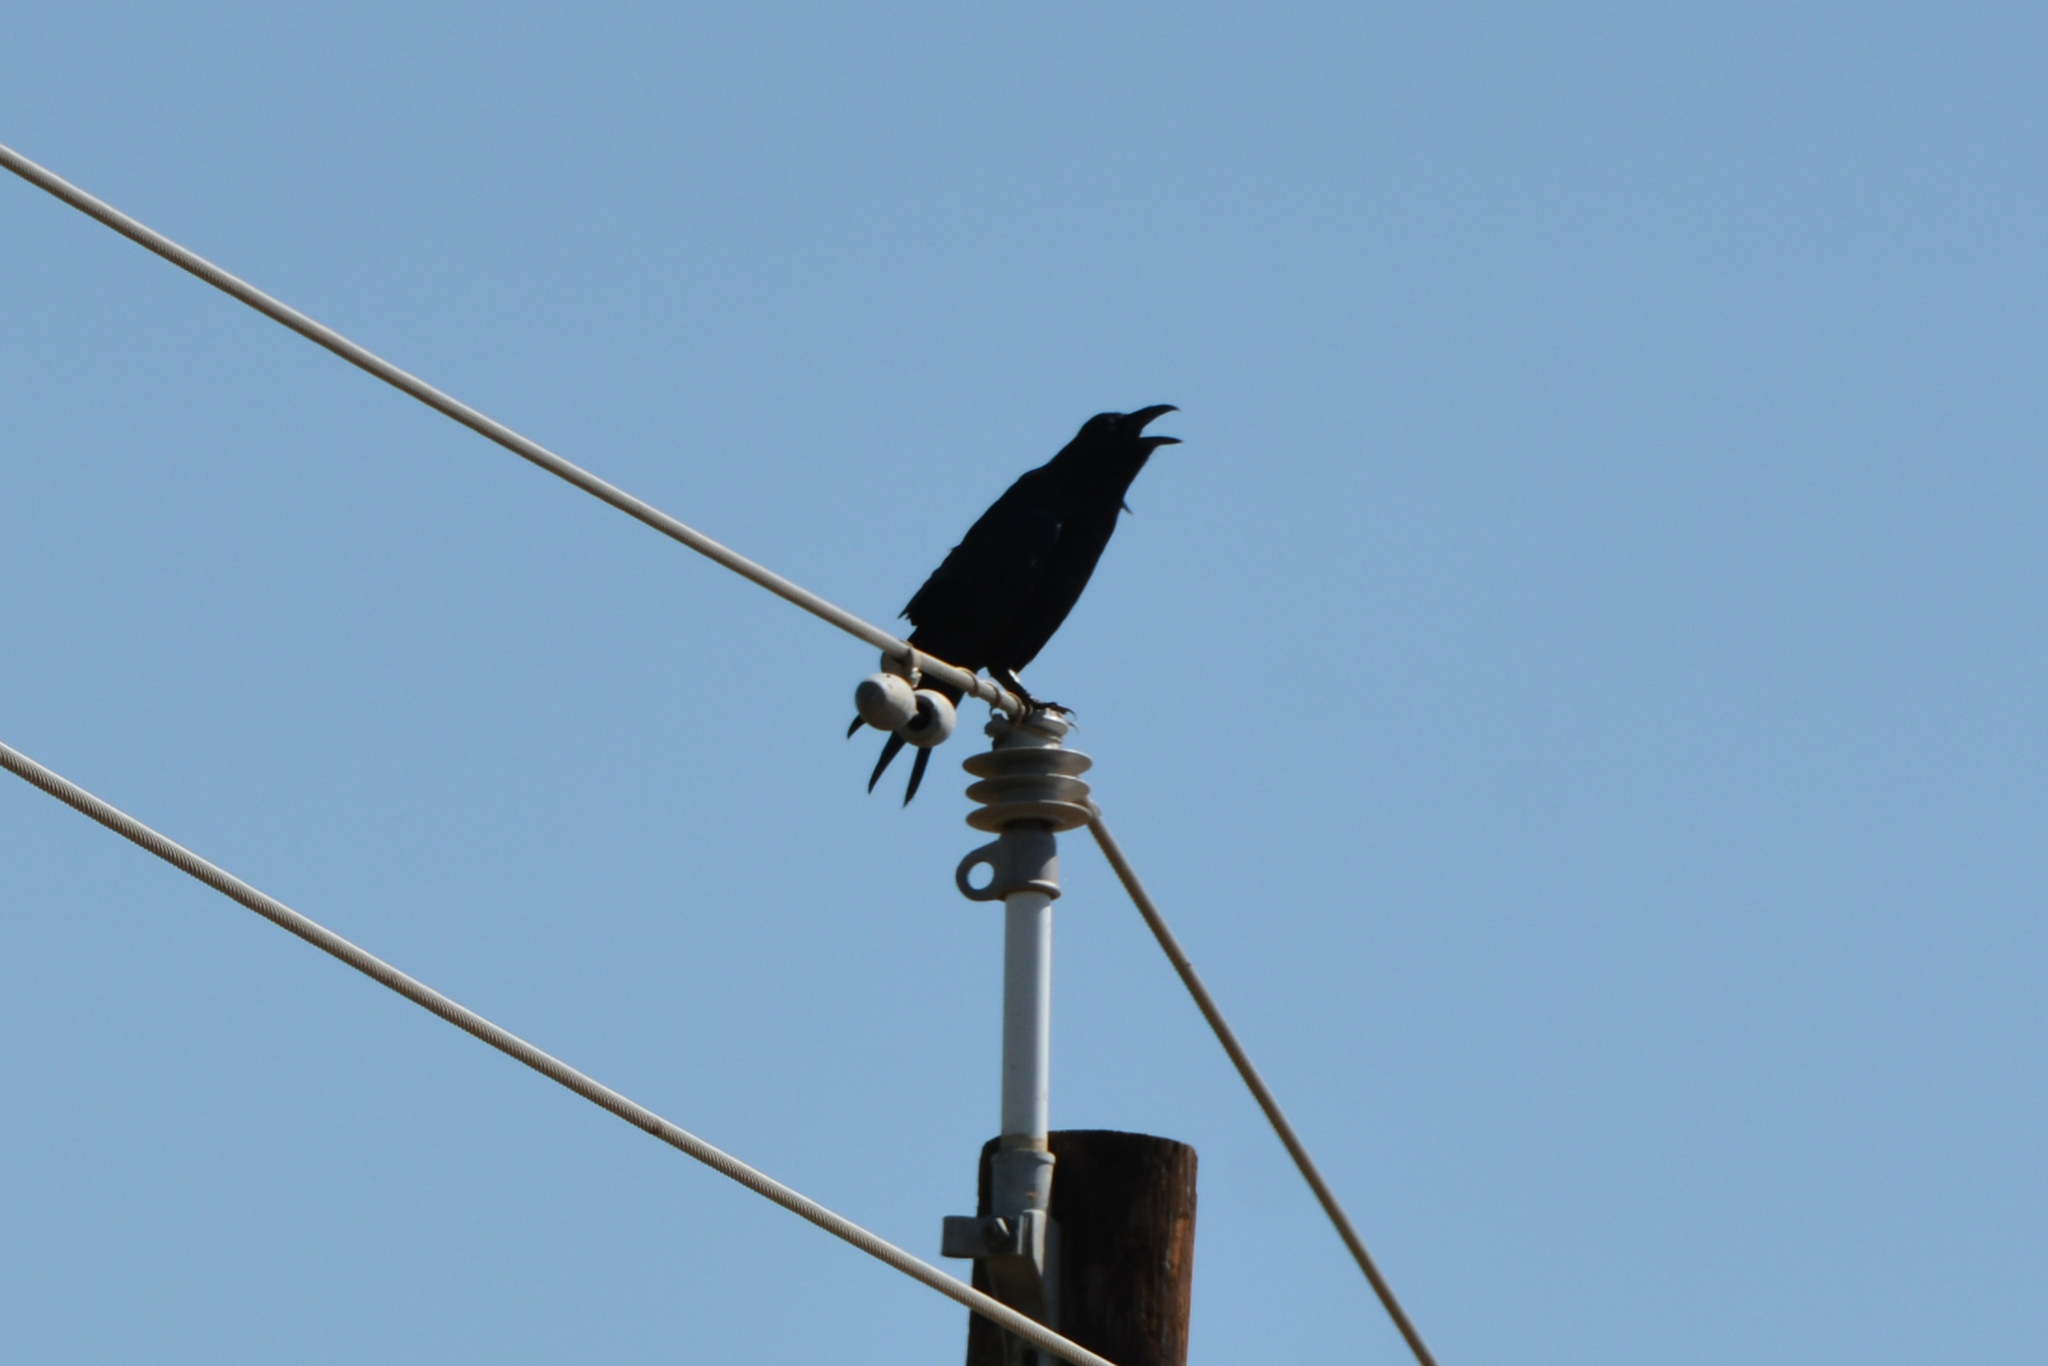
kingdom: Animalia
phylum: Chordata
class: Aves
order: Passeriformes
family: Corvidae
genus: Corvus
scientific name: Corvus brachyrhynchos
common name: American crow
